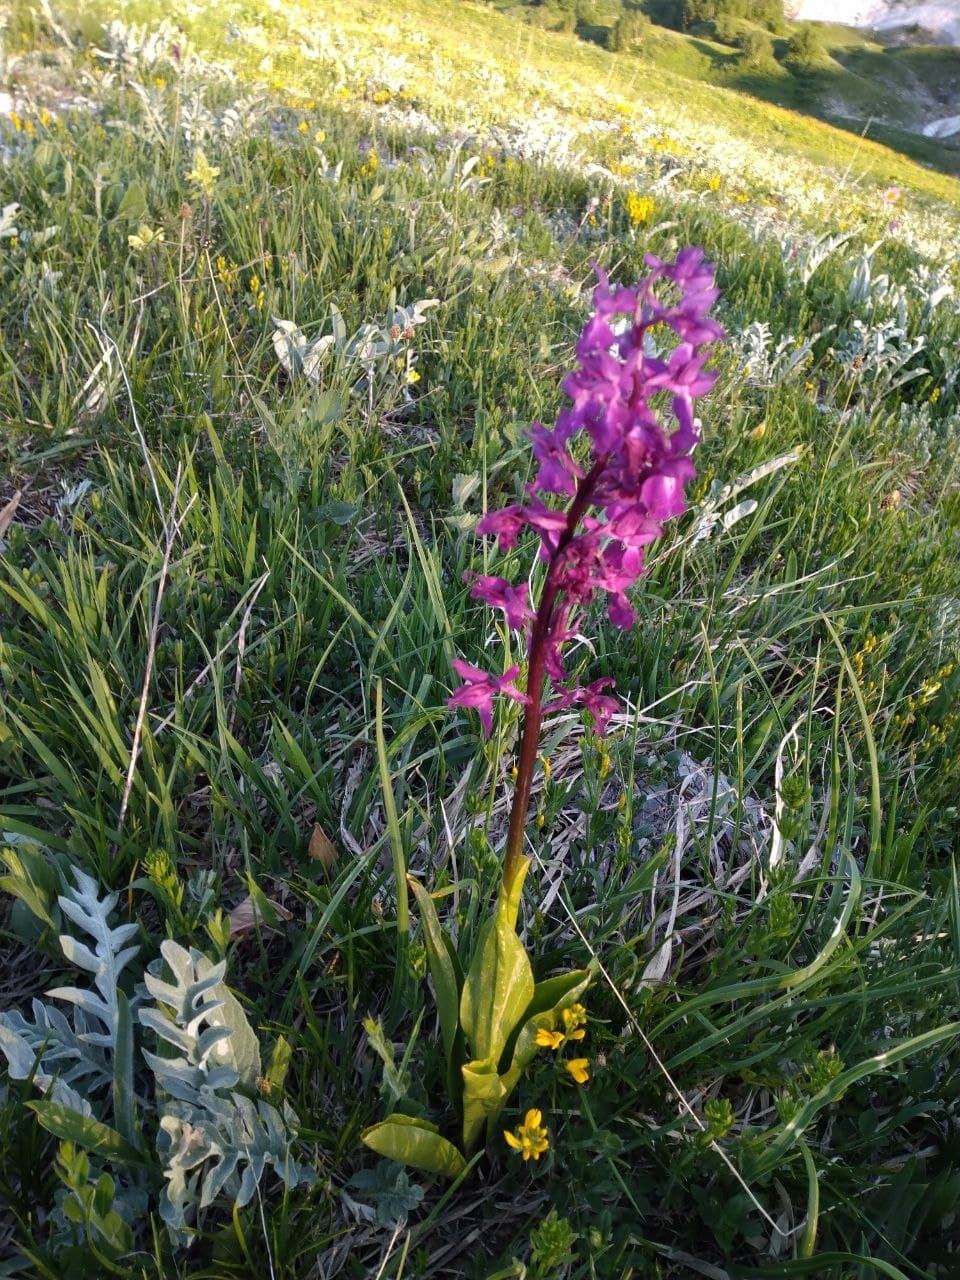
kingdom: Plantae
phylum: Tracheophyta
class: Liliopsida
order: Asparagales
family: Orchidaceae
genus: Orchis
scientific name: Orchis mascula
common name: Early-purple orchid
